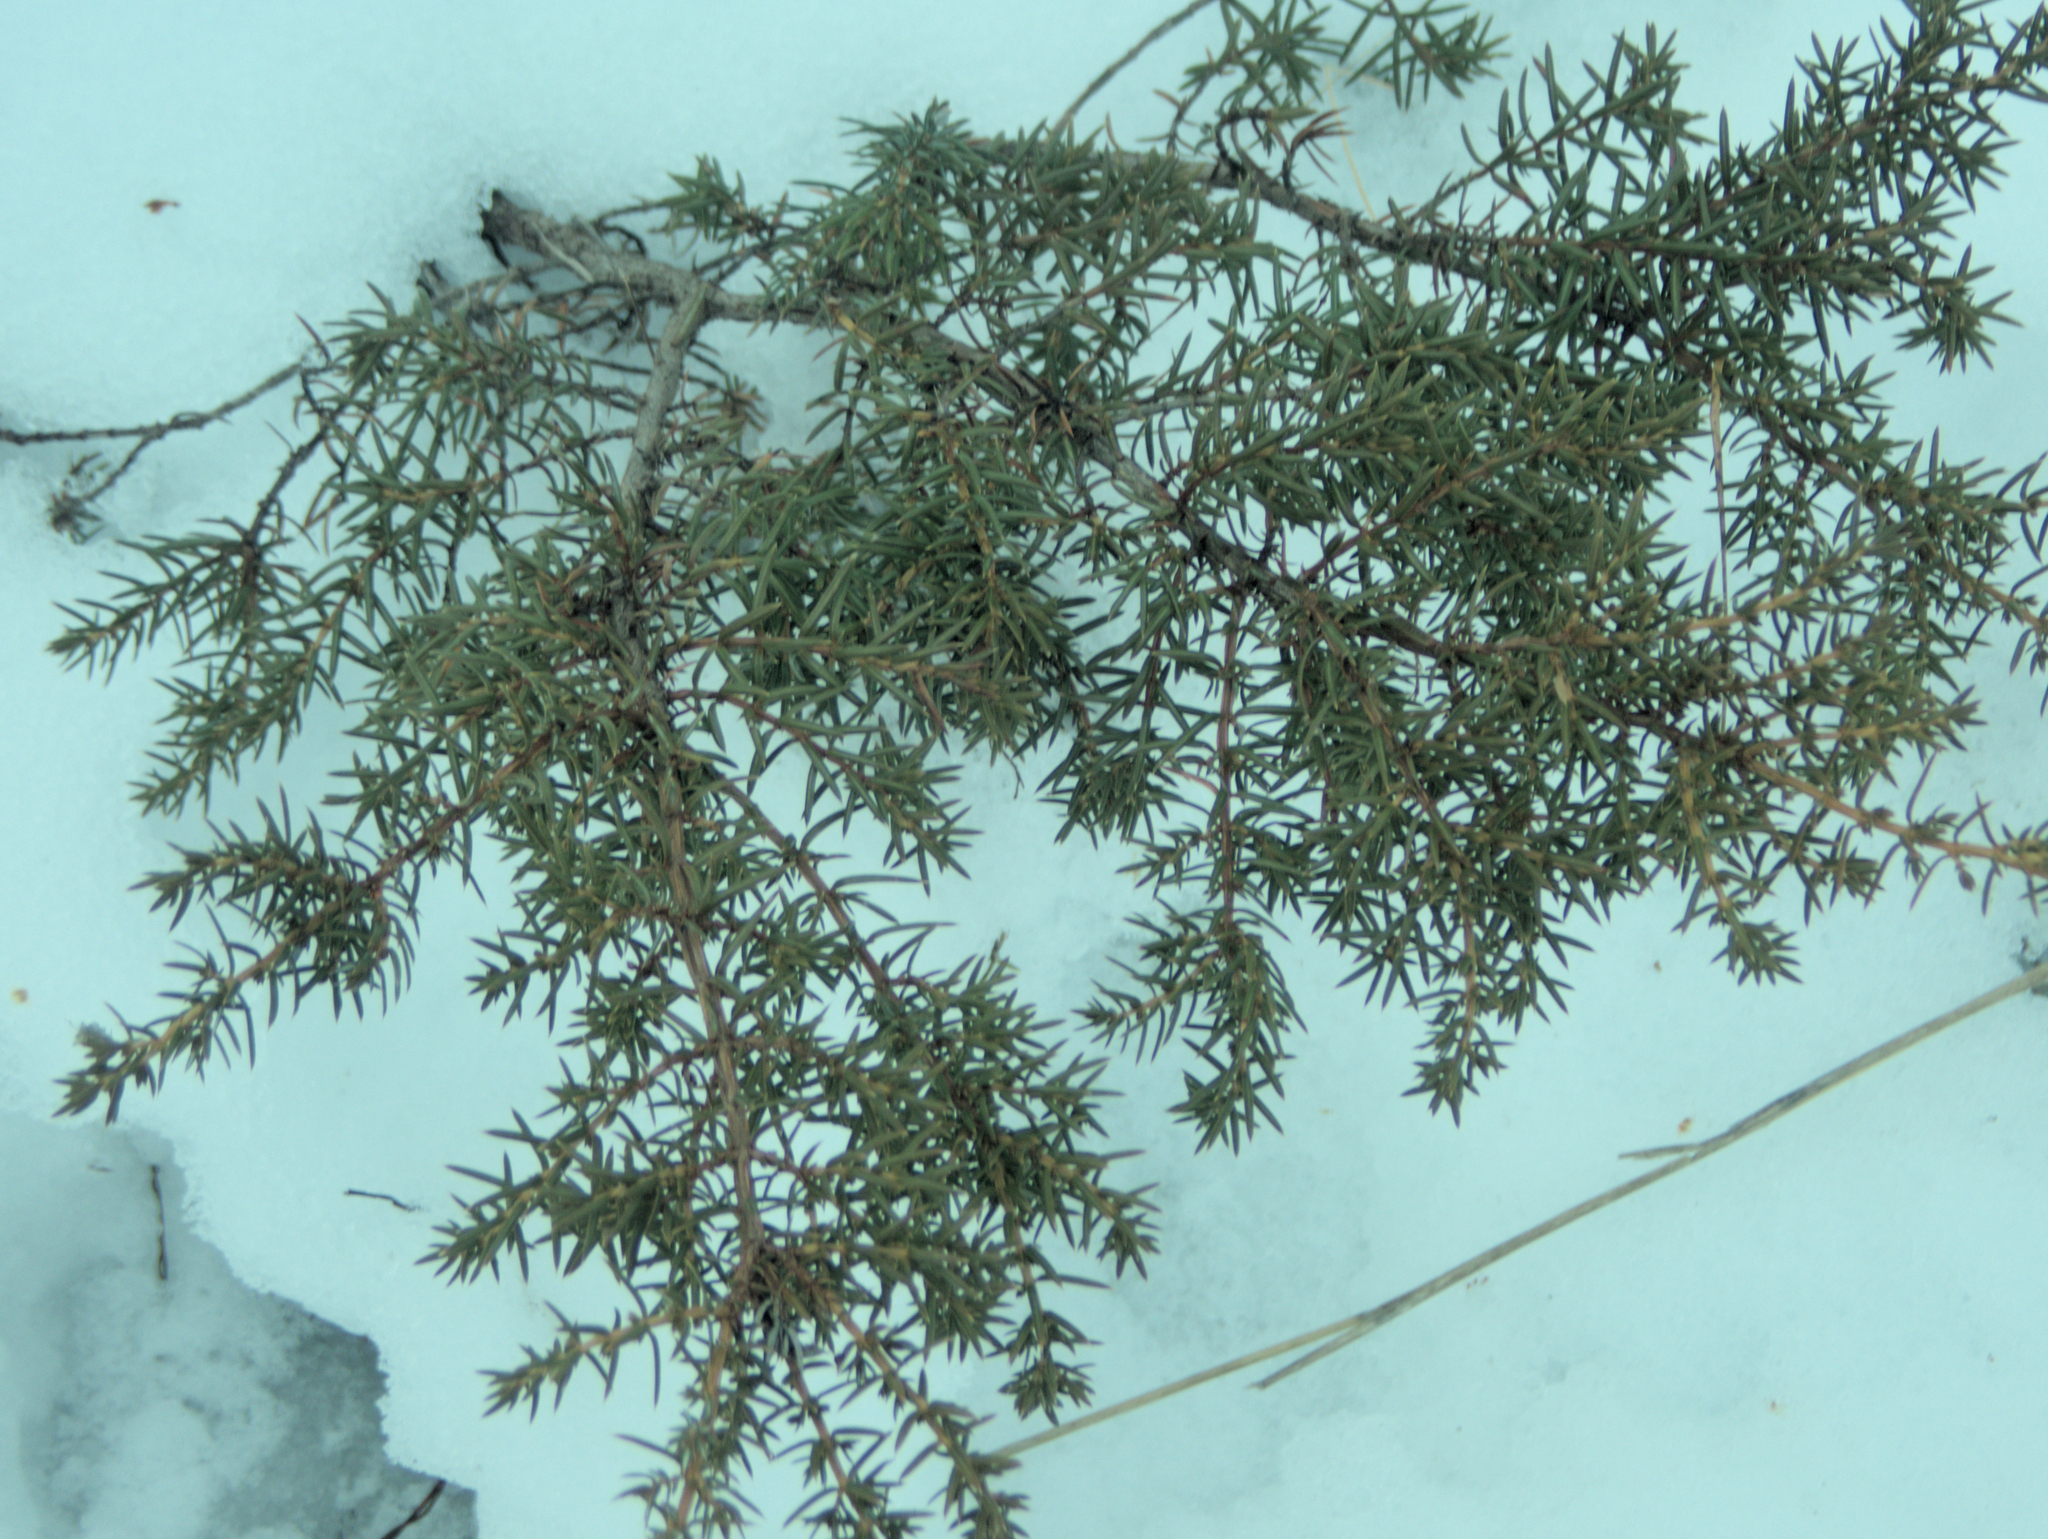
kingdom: Plantae
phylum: Tracheophyta
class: Pinopsida
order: Pinales
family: Cupressaceae
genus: Juniperus
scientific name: Juniperus communis
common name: Common juniper
